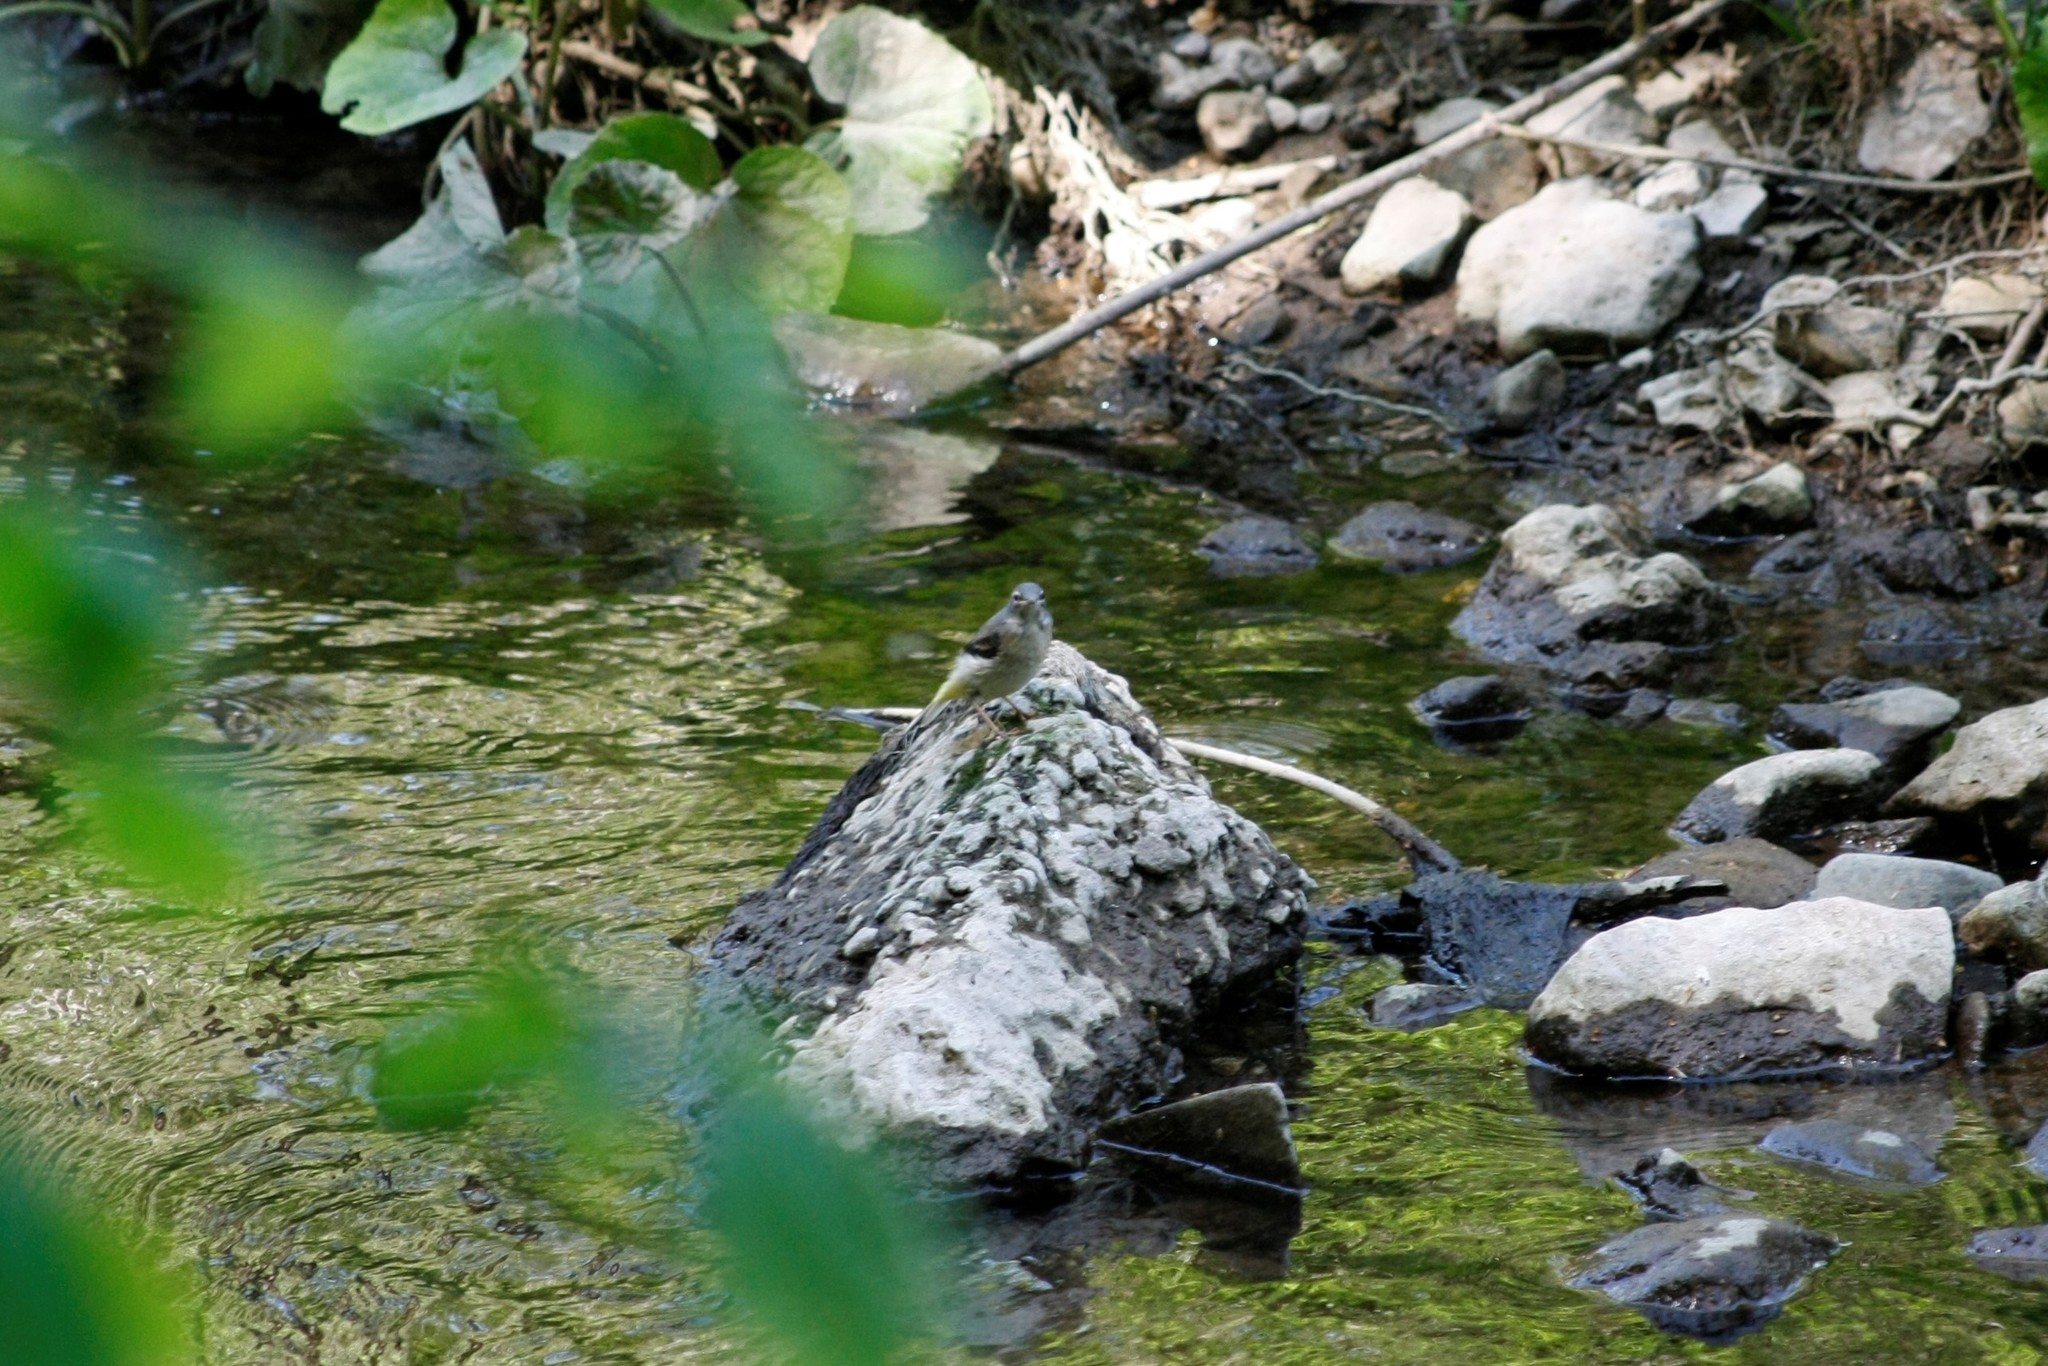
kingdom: Animalia
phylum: Chordata
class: Aves
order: Passeriformes
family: Motacillidae
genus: Motacilla
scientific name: Motacilla cinerea
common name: Grey wagtail
